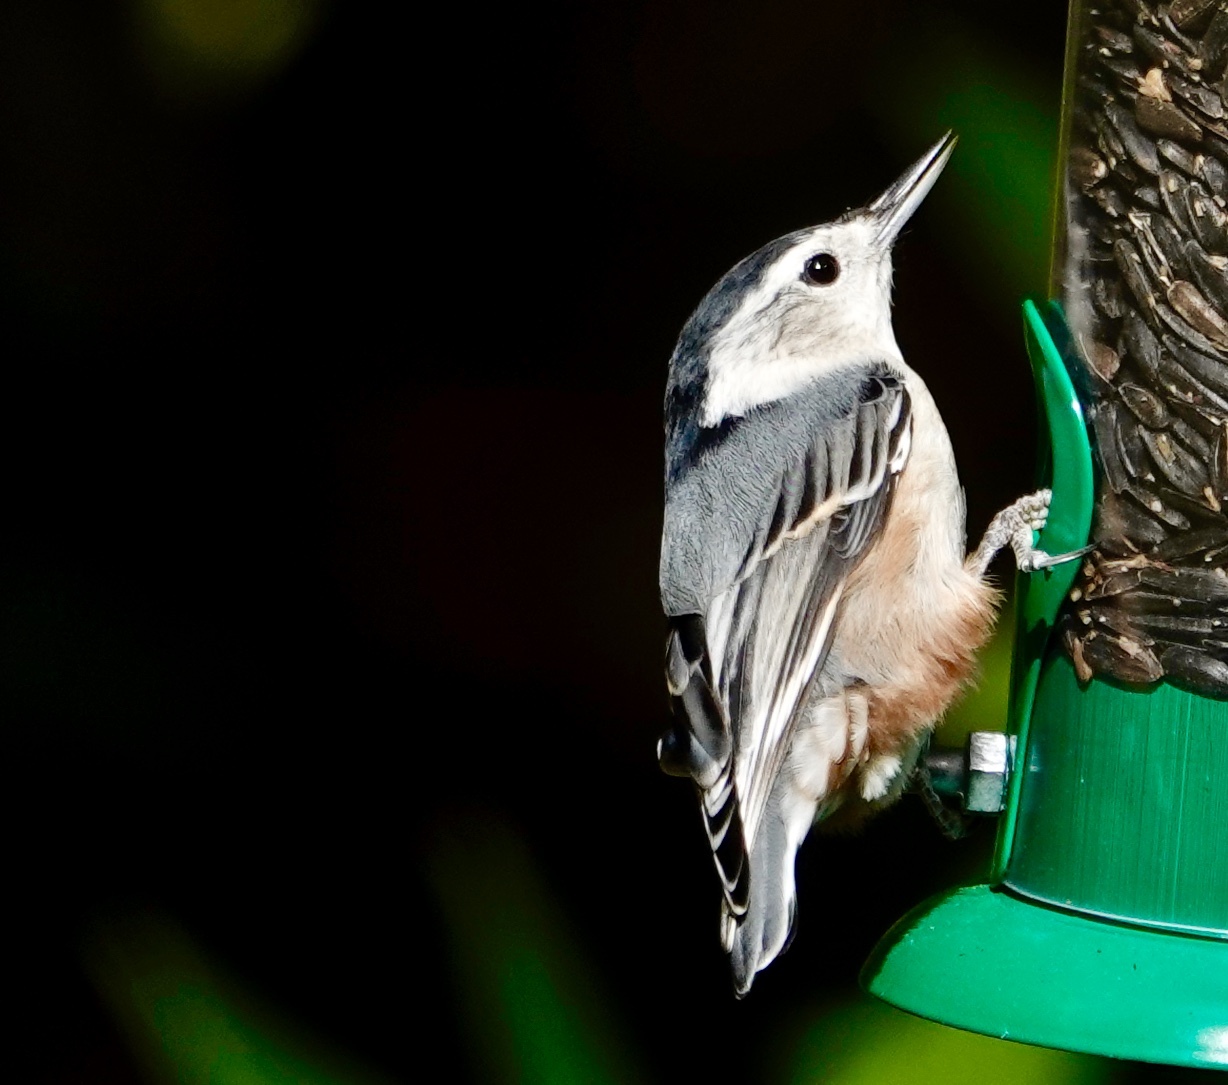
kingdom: Animalia
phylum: Chordata
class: Aves
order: Passeriformes
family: Sittidae
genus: Sitta
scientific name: Sitta carolinensis
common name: White-breasted nuthatch
